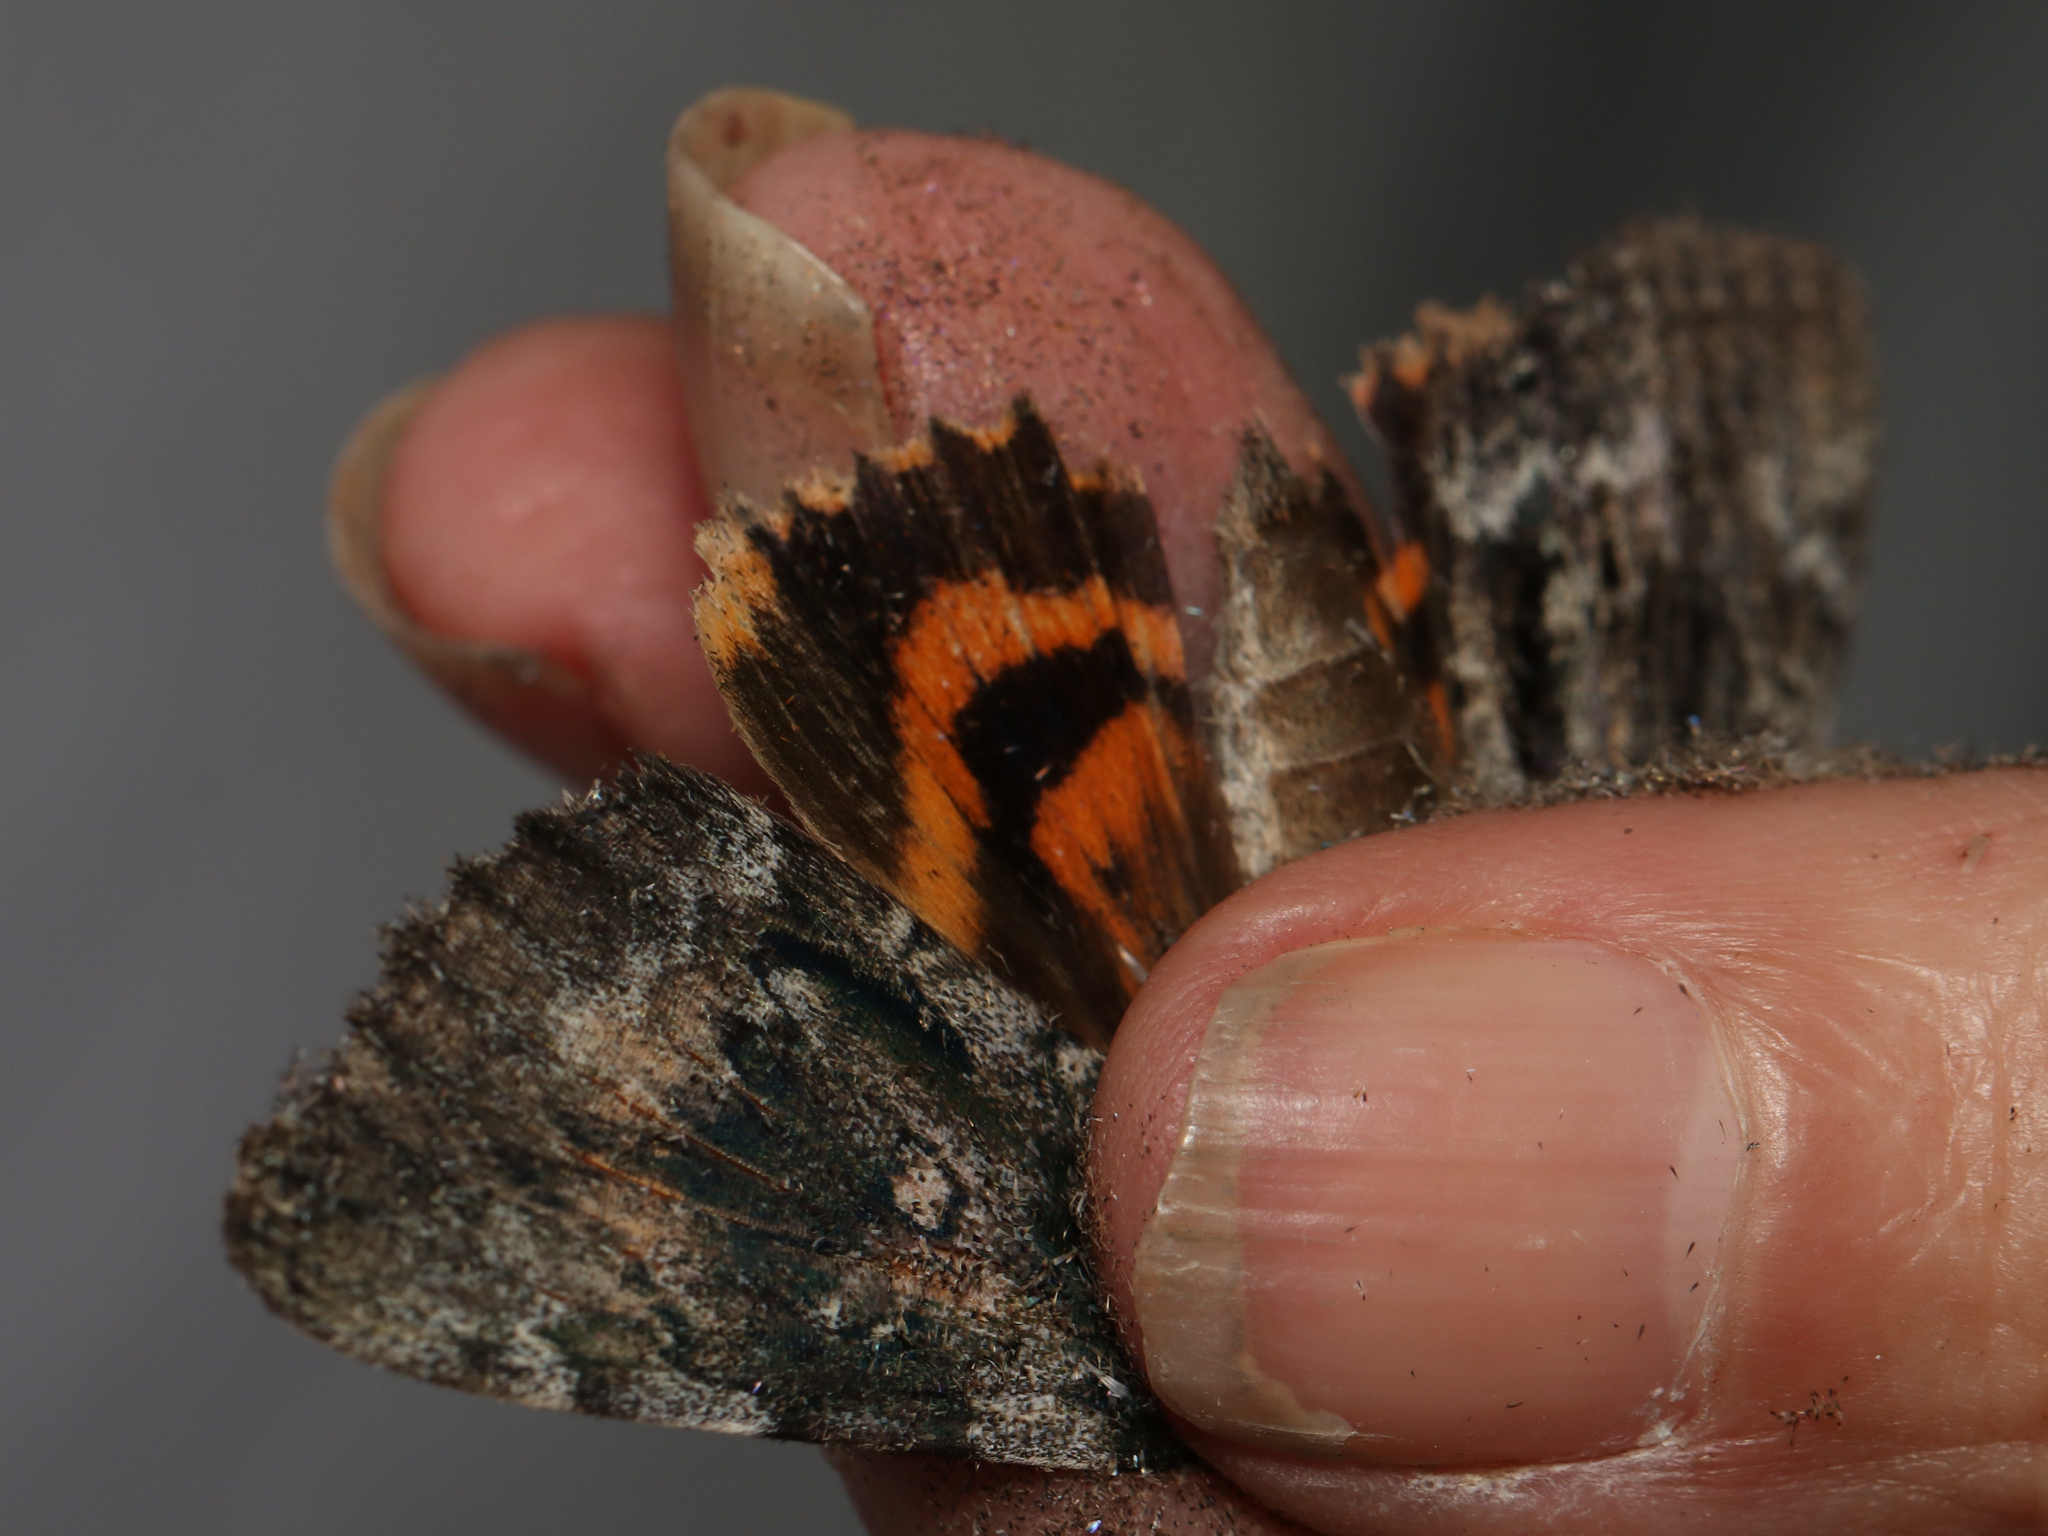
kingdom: Animalia
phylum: Arthropoda
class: Insecta
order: Lepidoptera
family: Erebidae
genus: Catocala
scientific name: Catocala palaeogama
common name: Oldwife underwing
